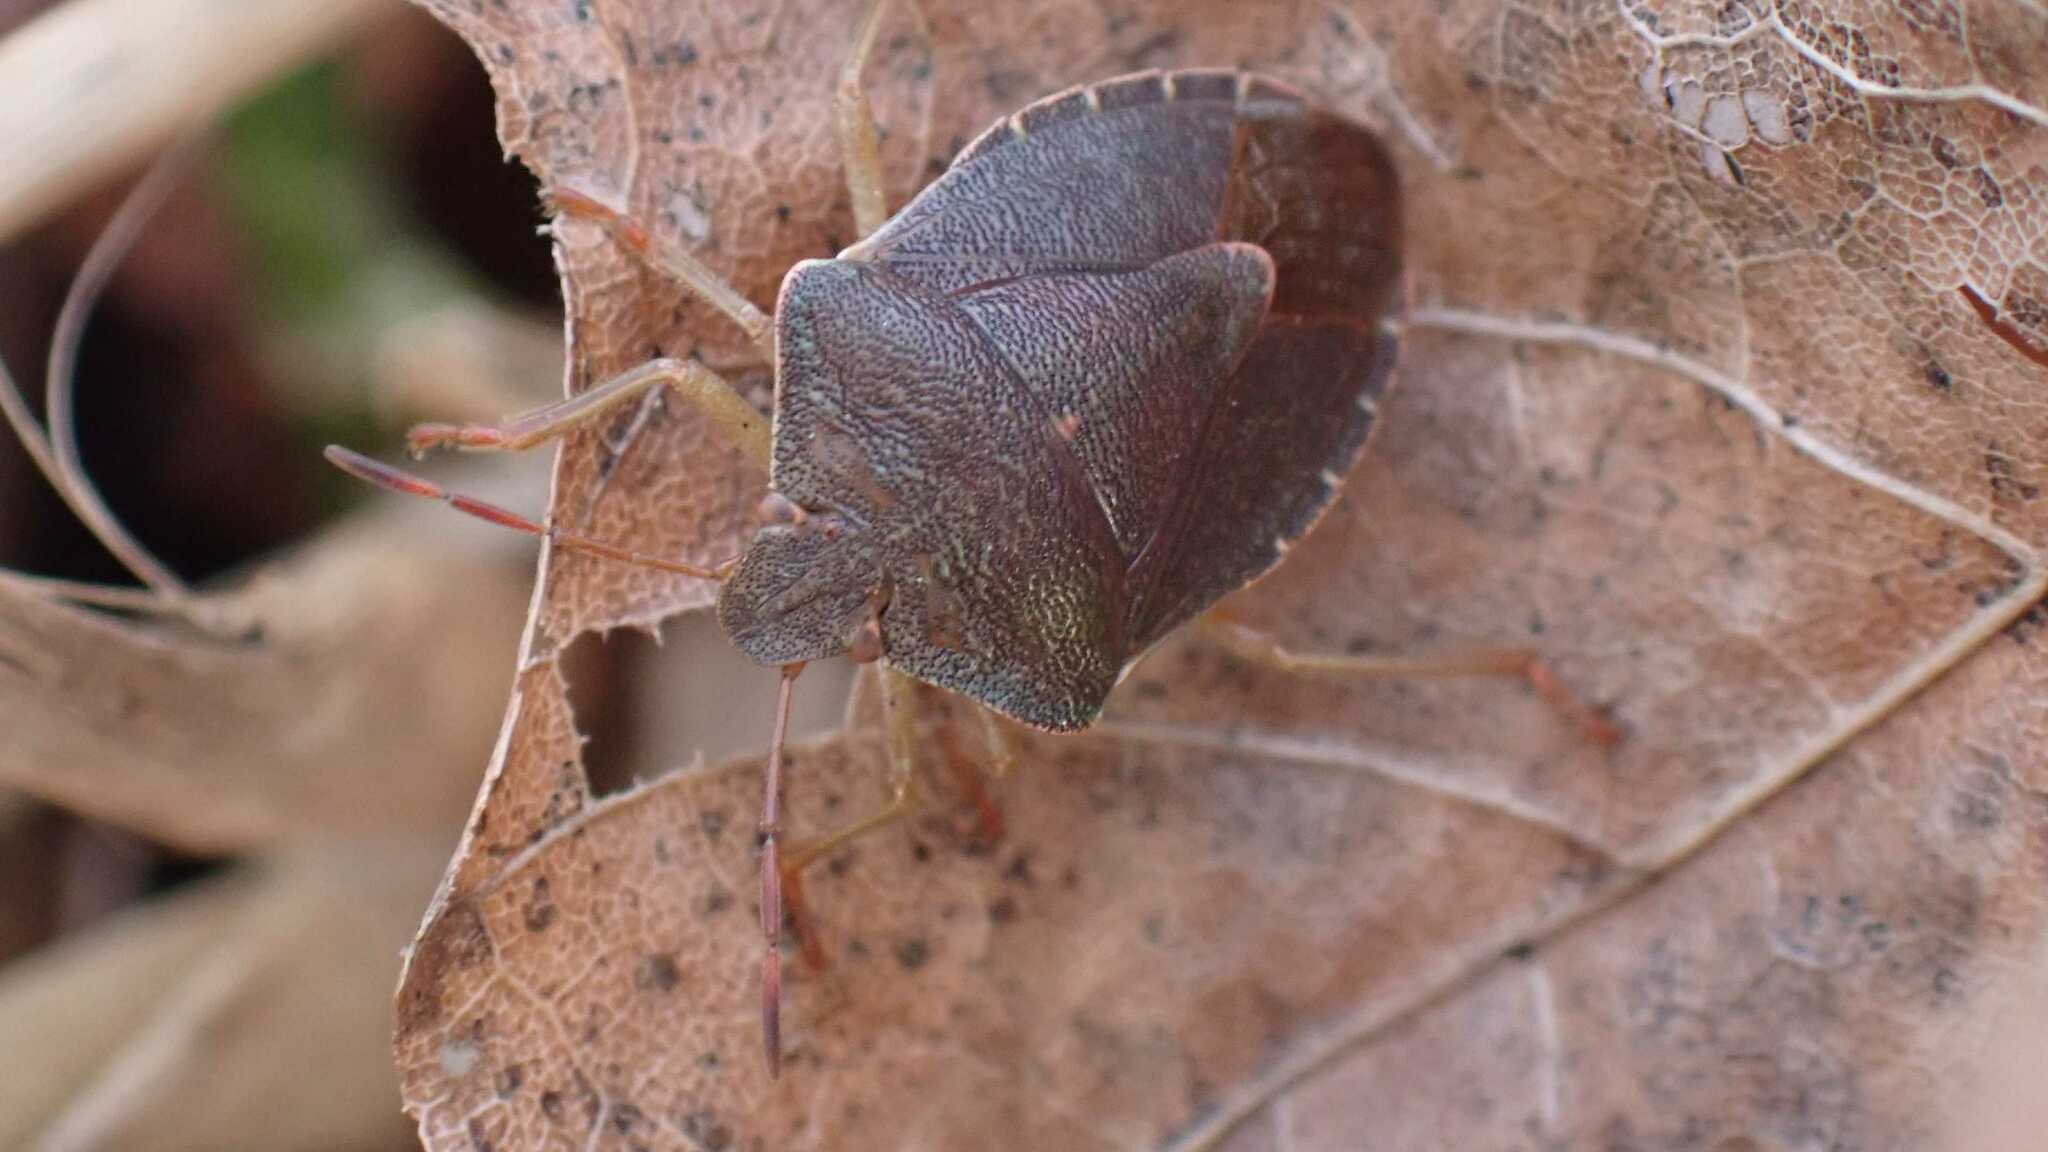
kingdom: Animalia
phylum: Arthropoda
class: Insecta
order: Hemiptera
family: Pentatomidae
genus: Palomena
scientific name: Palomena prasina
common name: Green shieldbug
